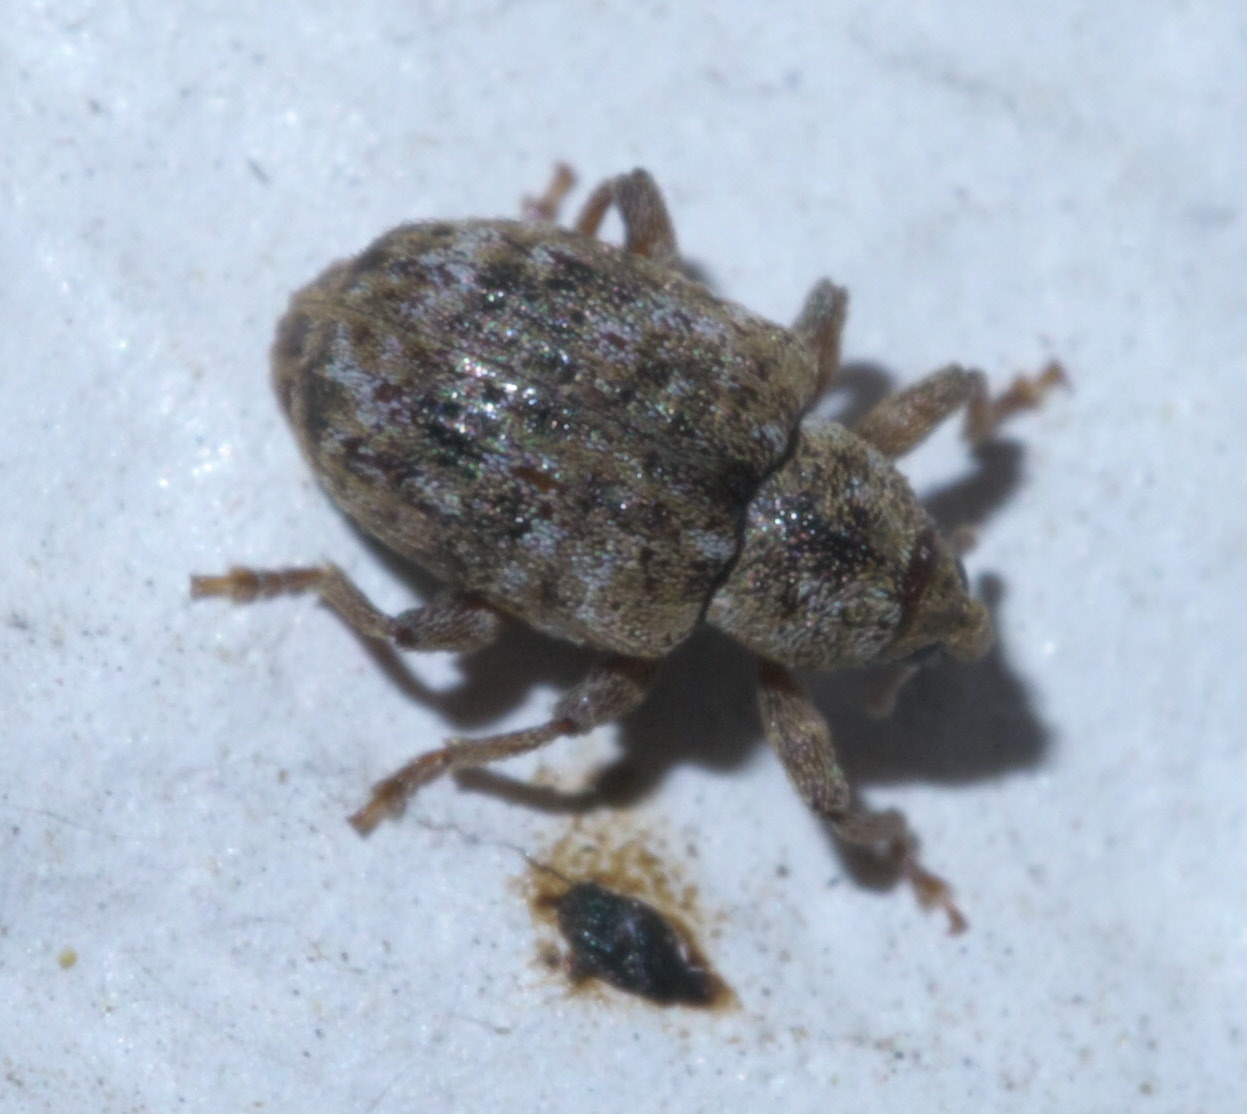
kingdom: Animalia
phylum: Arthropoda
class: Insecta
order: Coleoptera
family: Curculionidae
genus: Conotrachelus
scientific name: Conotrachelus recessus
